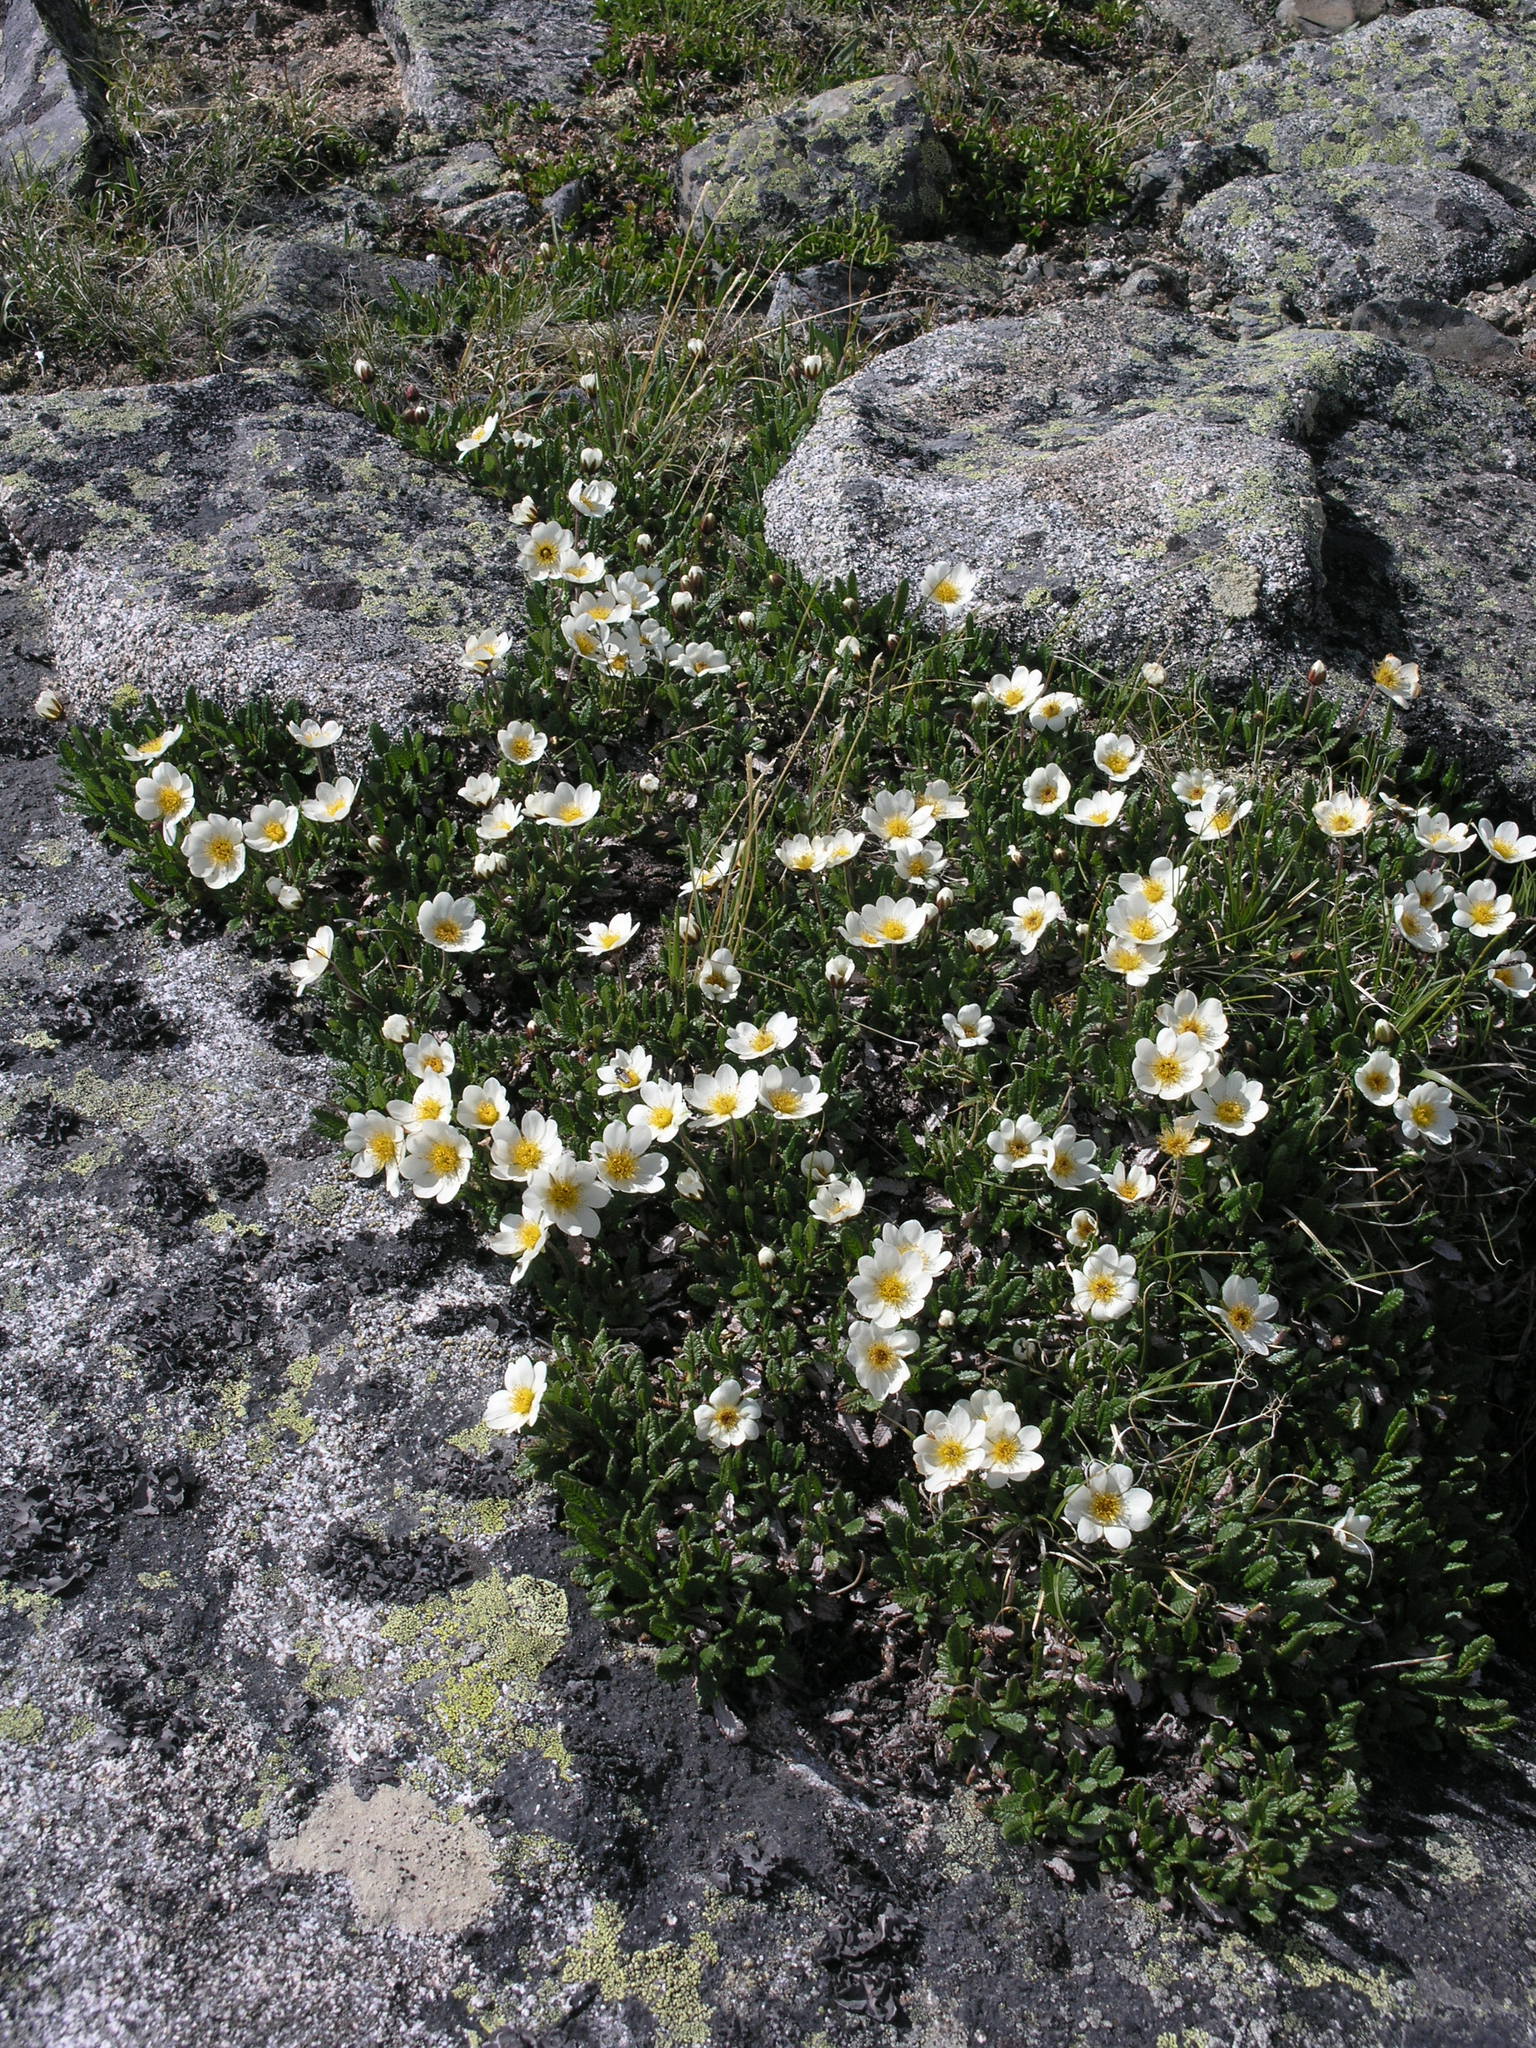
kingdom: Plantae
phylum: Tracheophyta
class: Magnoliopsida
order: Rosales
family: Rosaceae
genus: Dryas
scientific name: Dryas octopetala
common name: Eight-petal mountain-avens
